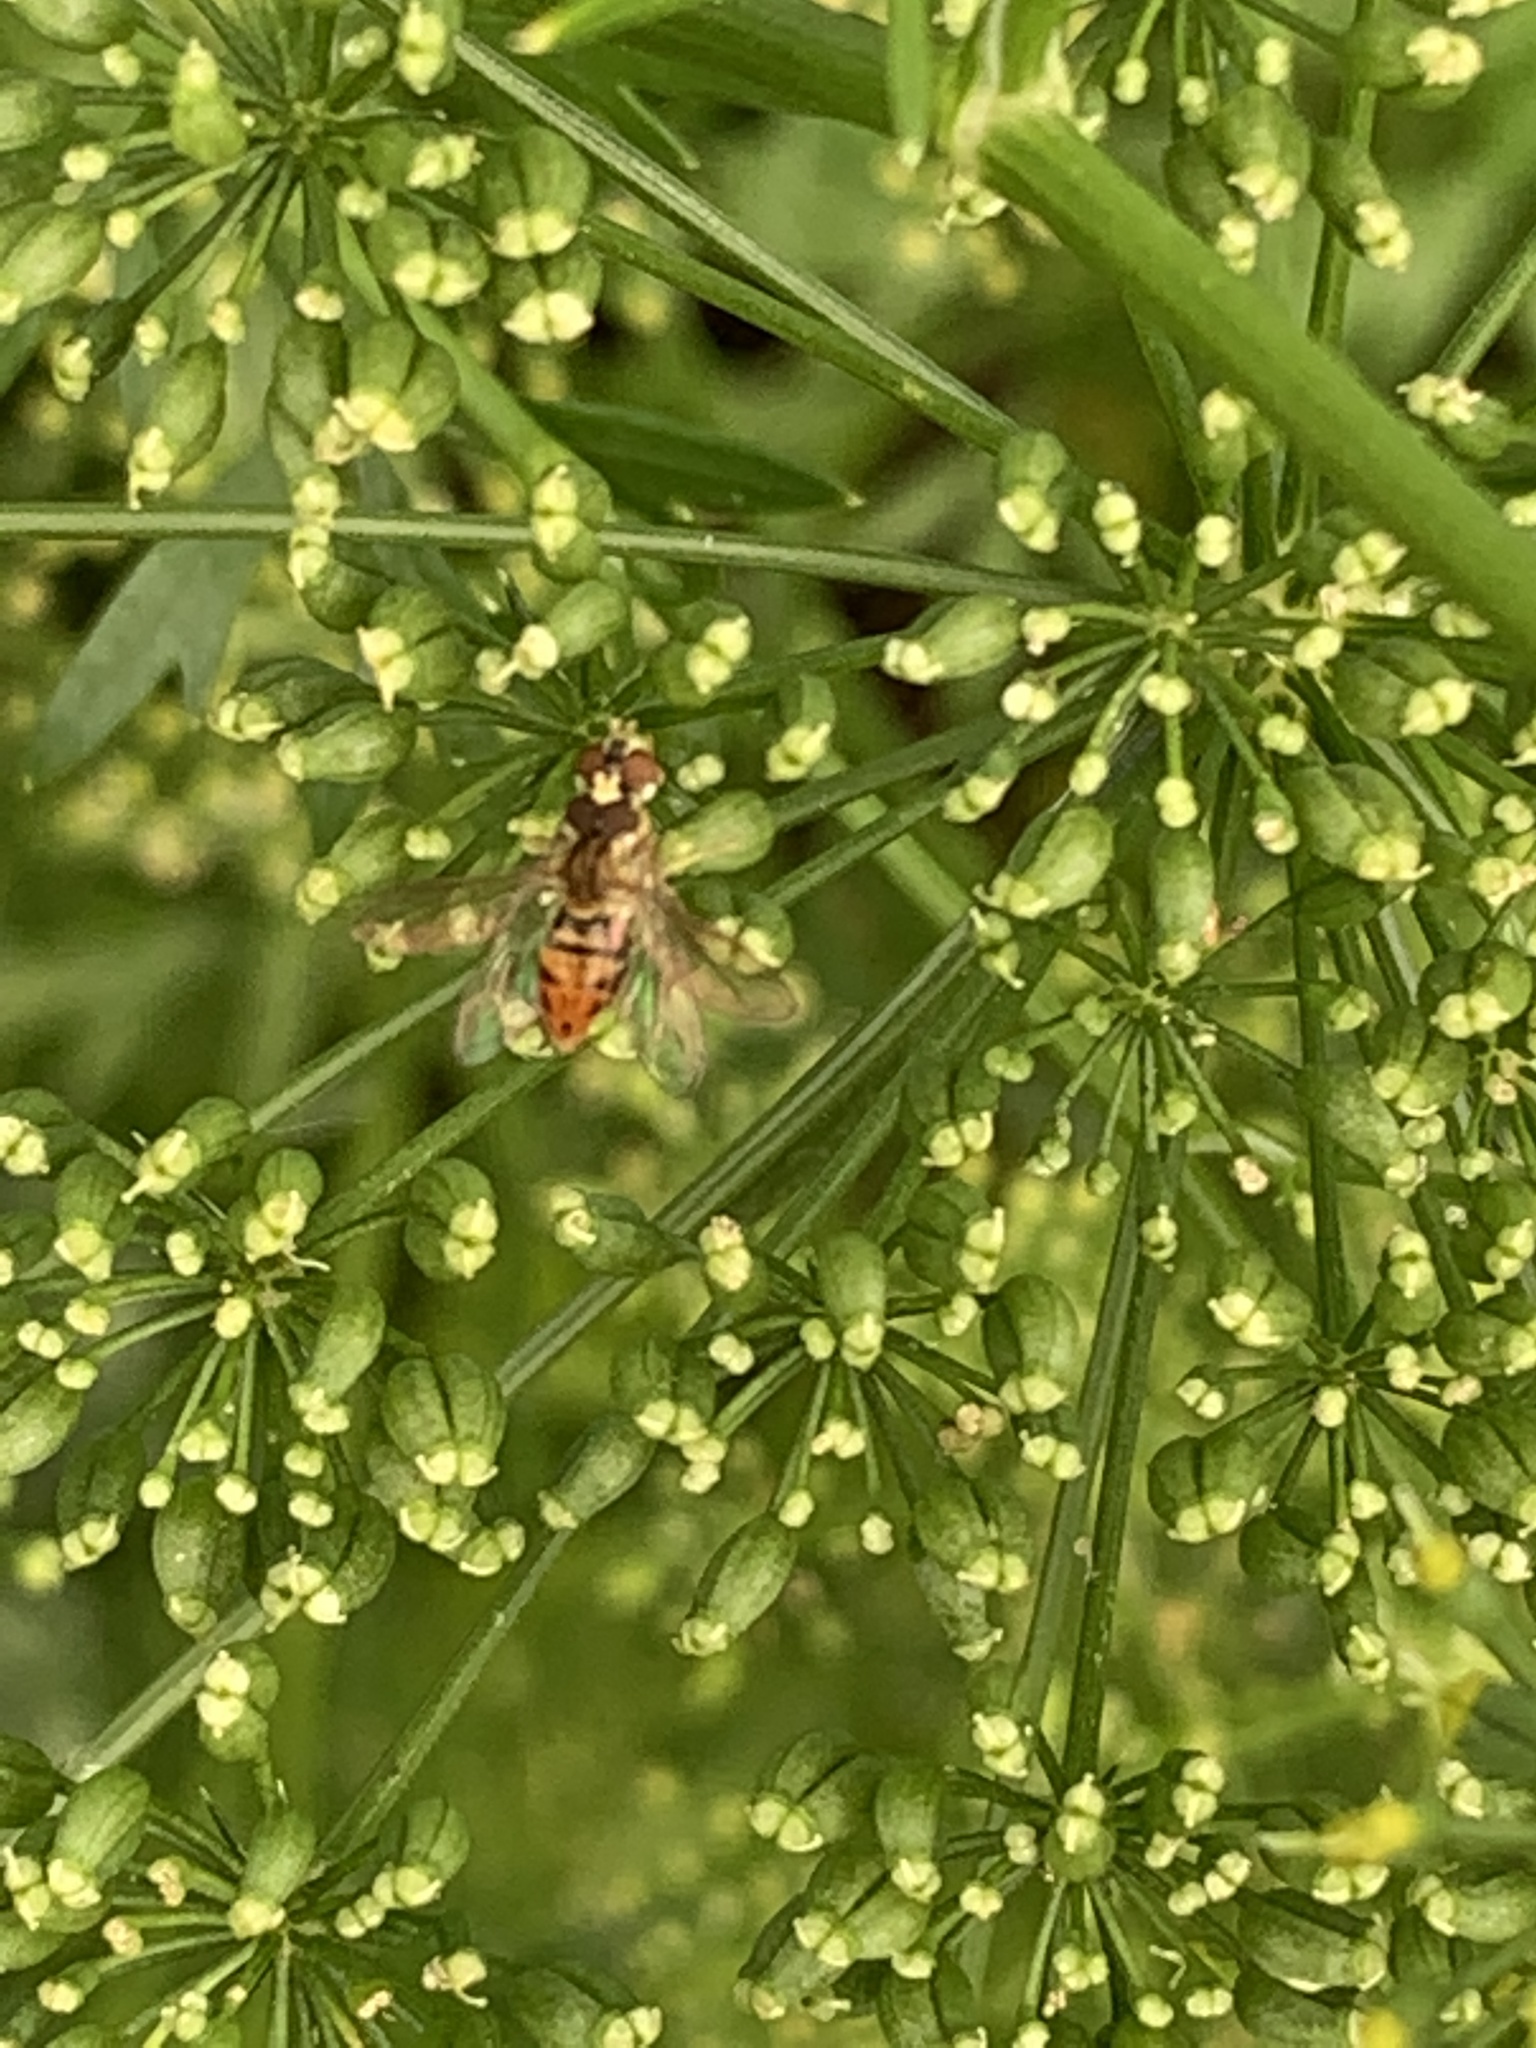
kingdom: Animalia
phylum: Arthropoda
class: Insecta
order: Diptera
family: Syrphidae
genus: Toxomerus
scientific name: Toxomerus marginatus
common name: Syrphid fly
